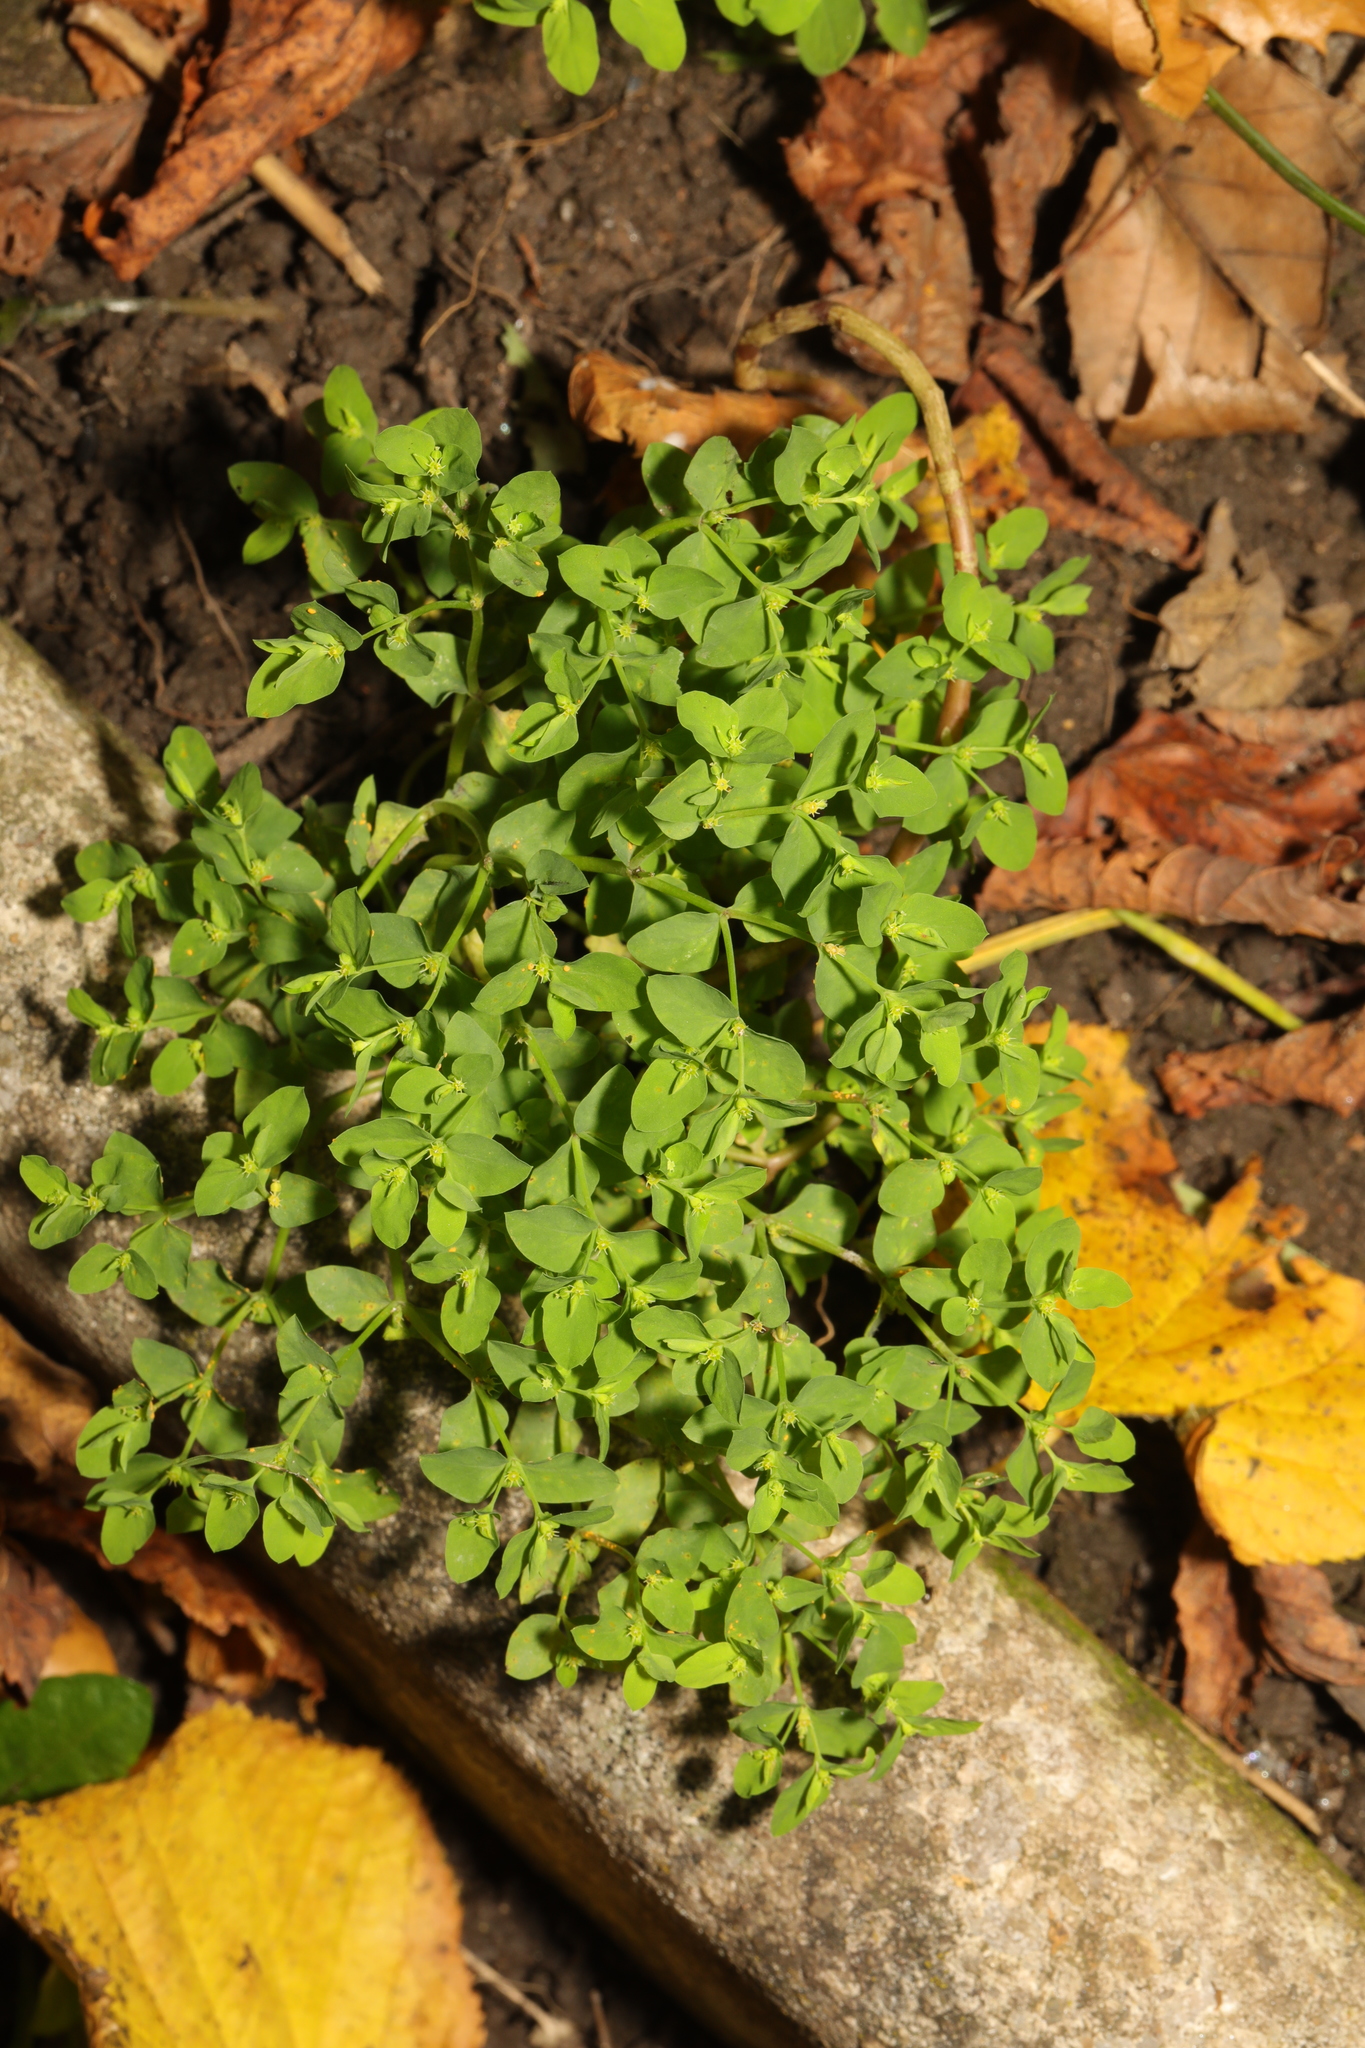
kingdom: Plantae
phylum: Tracheophyta
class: Magnoliopsida
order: Malpighiales
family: Euphorbiaceae
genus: Euphorbia
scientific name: Euphorbia peplus
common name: Petty spurge
